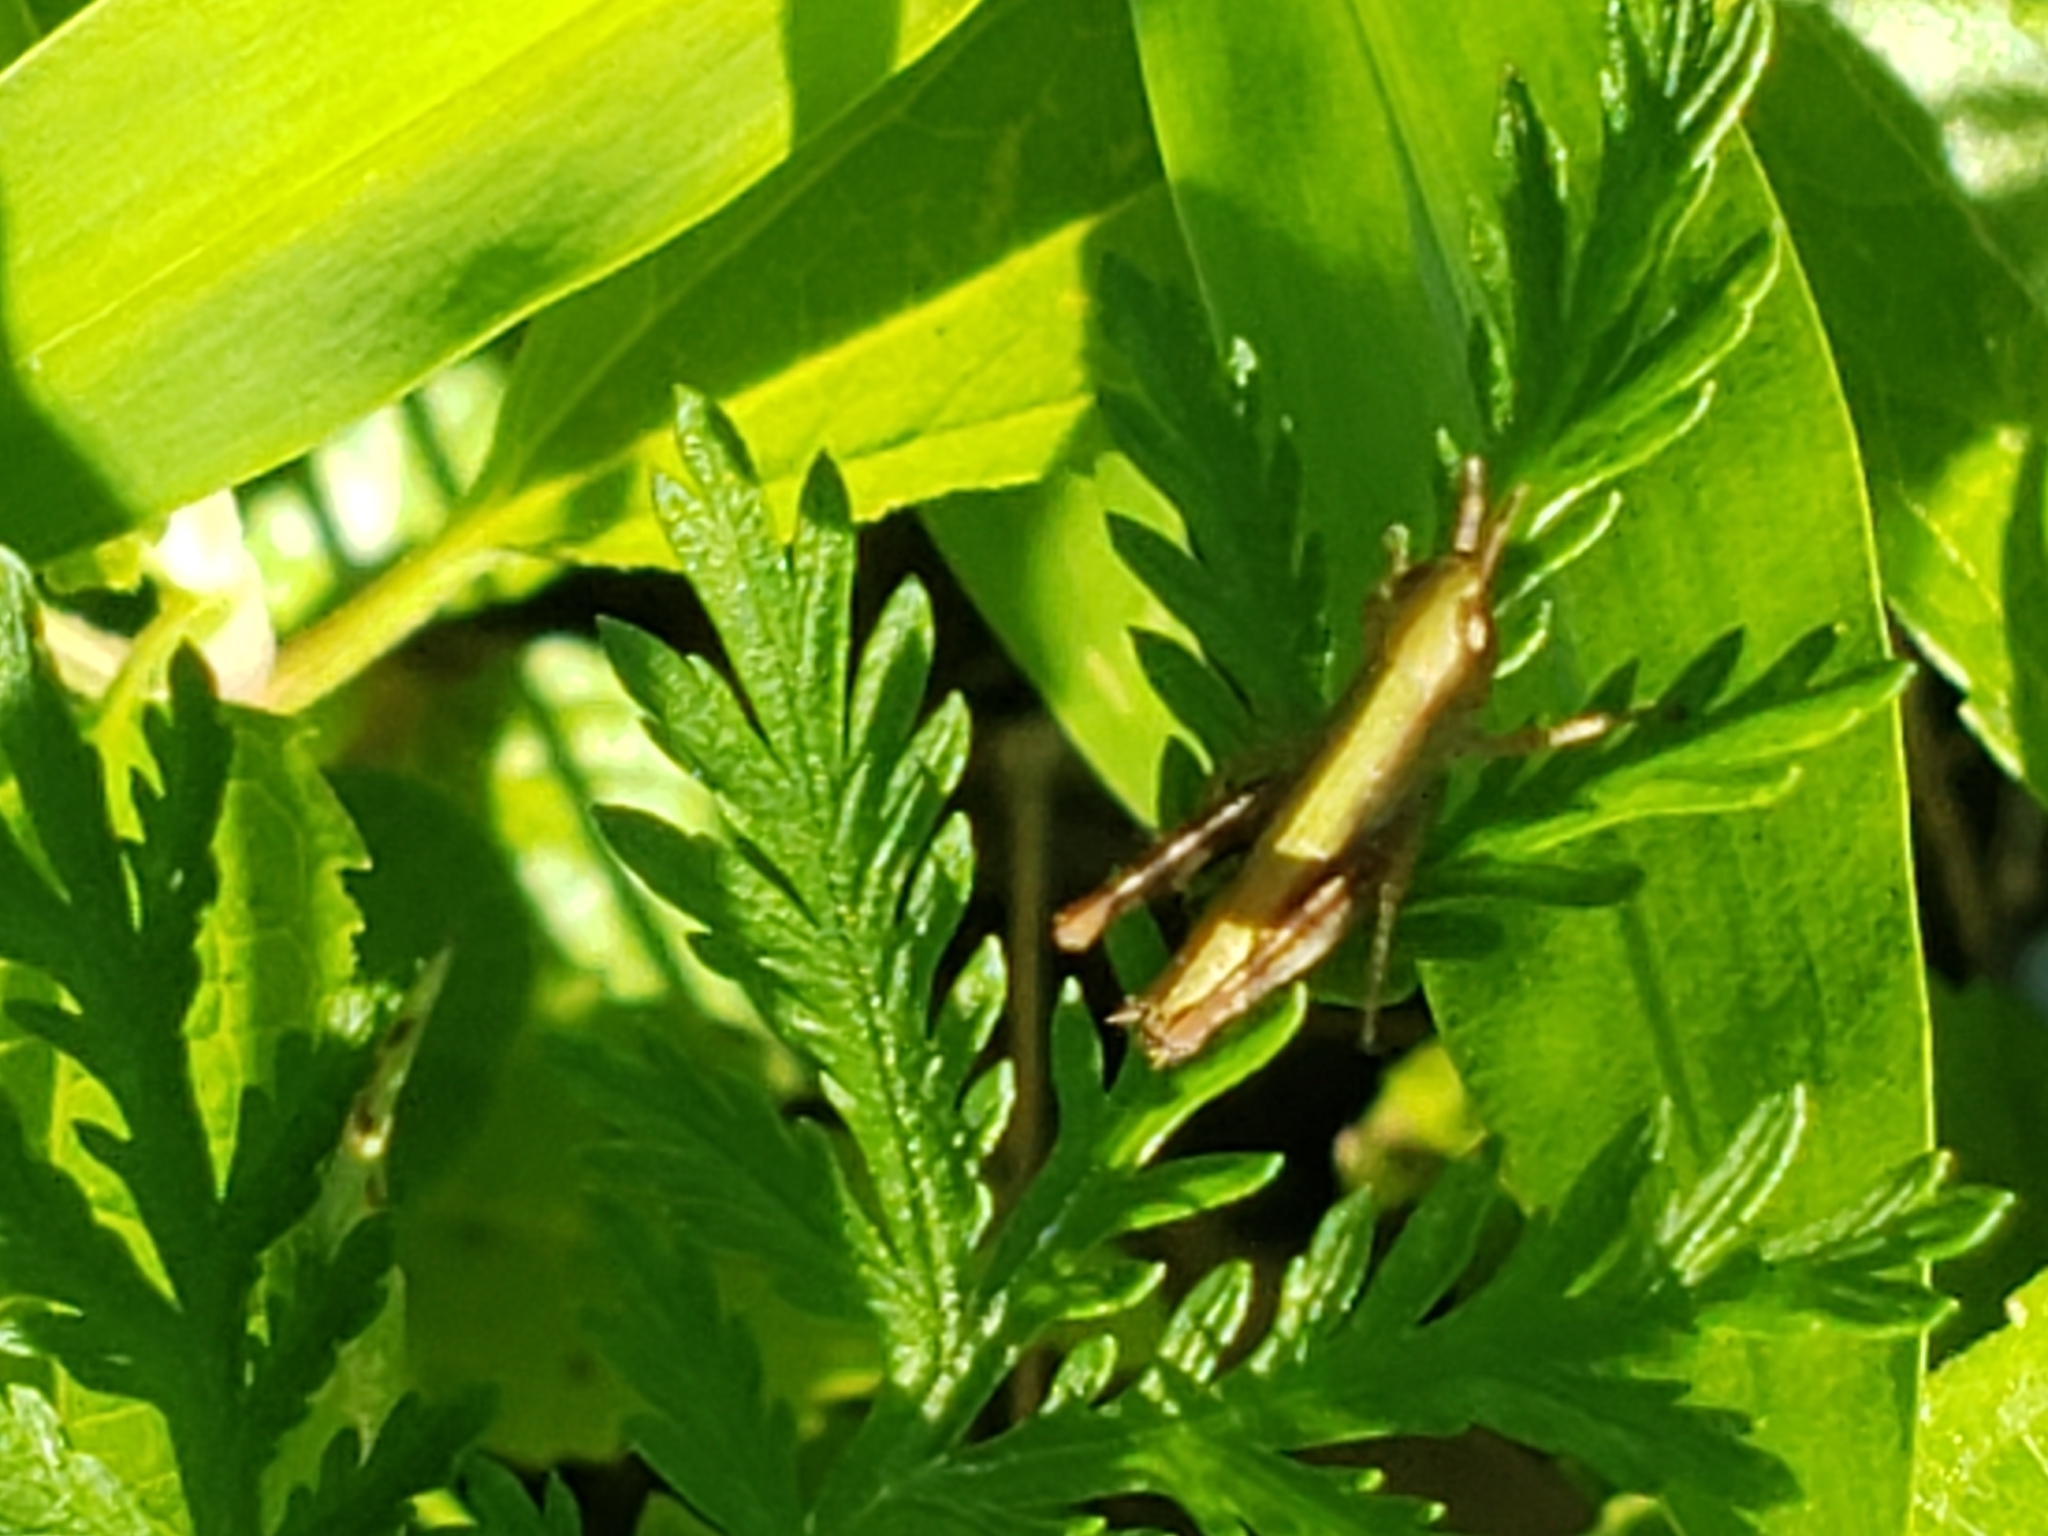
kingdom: Animalia
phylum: Arthropoda
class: Insecta
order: Orthoptera
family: Acrididae
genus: Dichromorpha
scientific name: Dichromorpha viridis
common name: Short-winged green grasshopper
